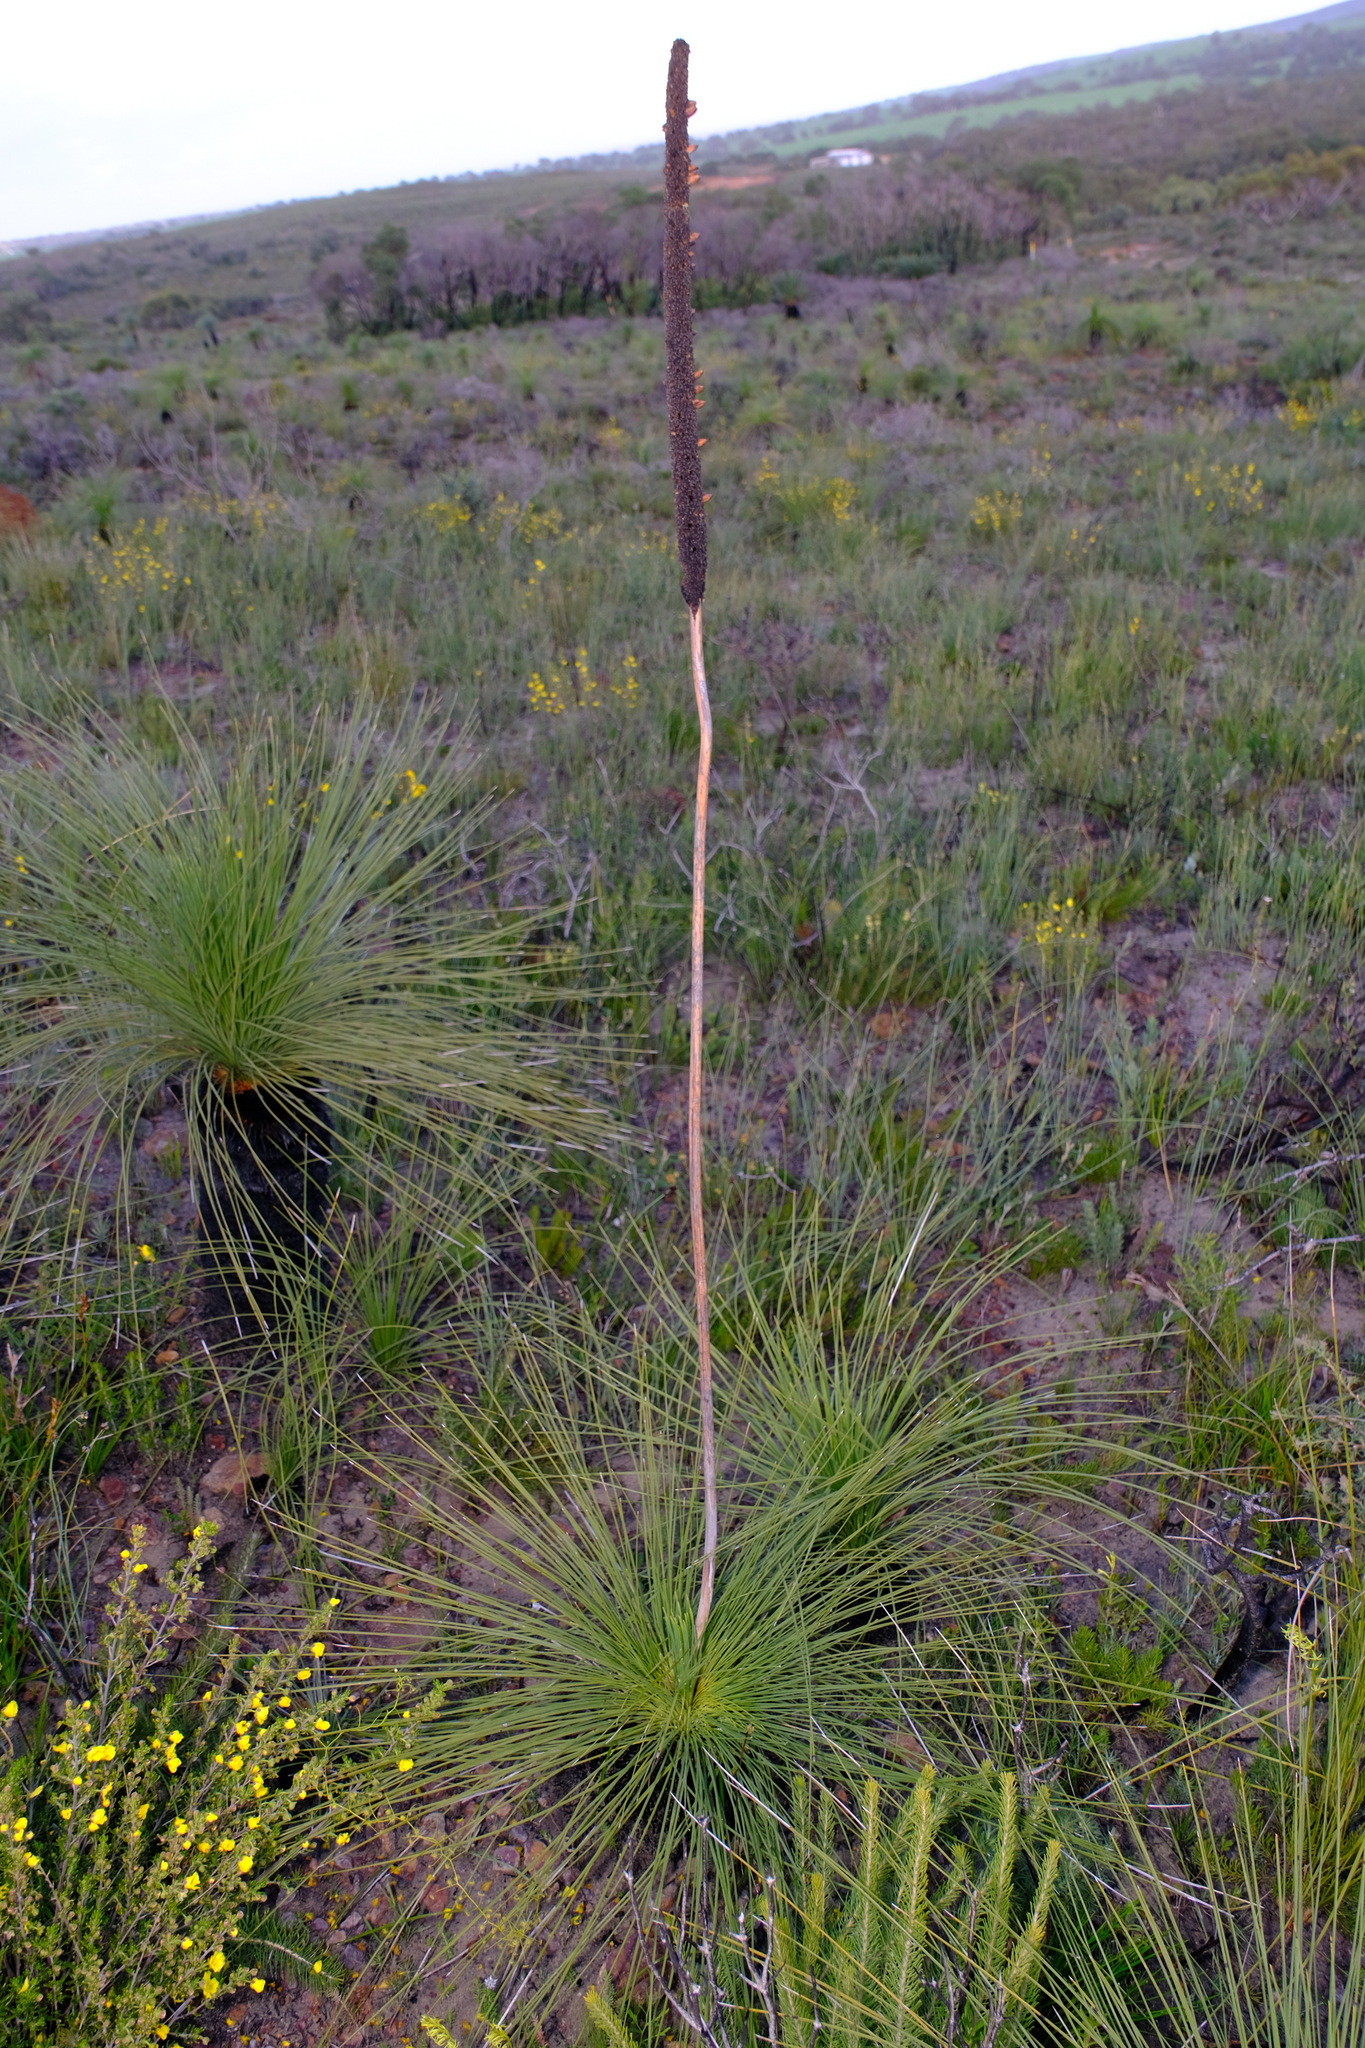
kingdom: Plantae
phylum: Tracheophyta
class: Liliopsida
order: Asparagales
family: Asphodelaceae
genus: Xanthorrhoea
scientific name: Xanthorrhoea
